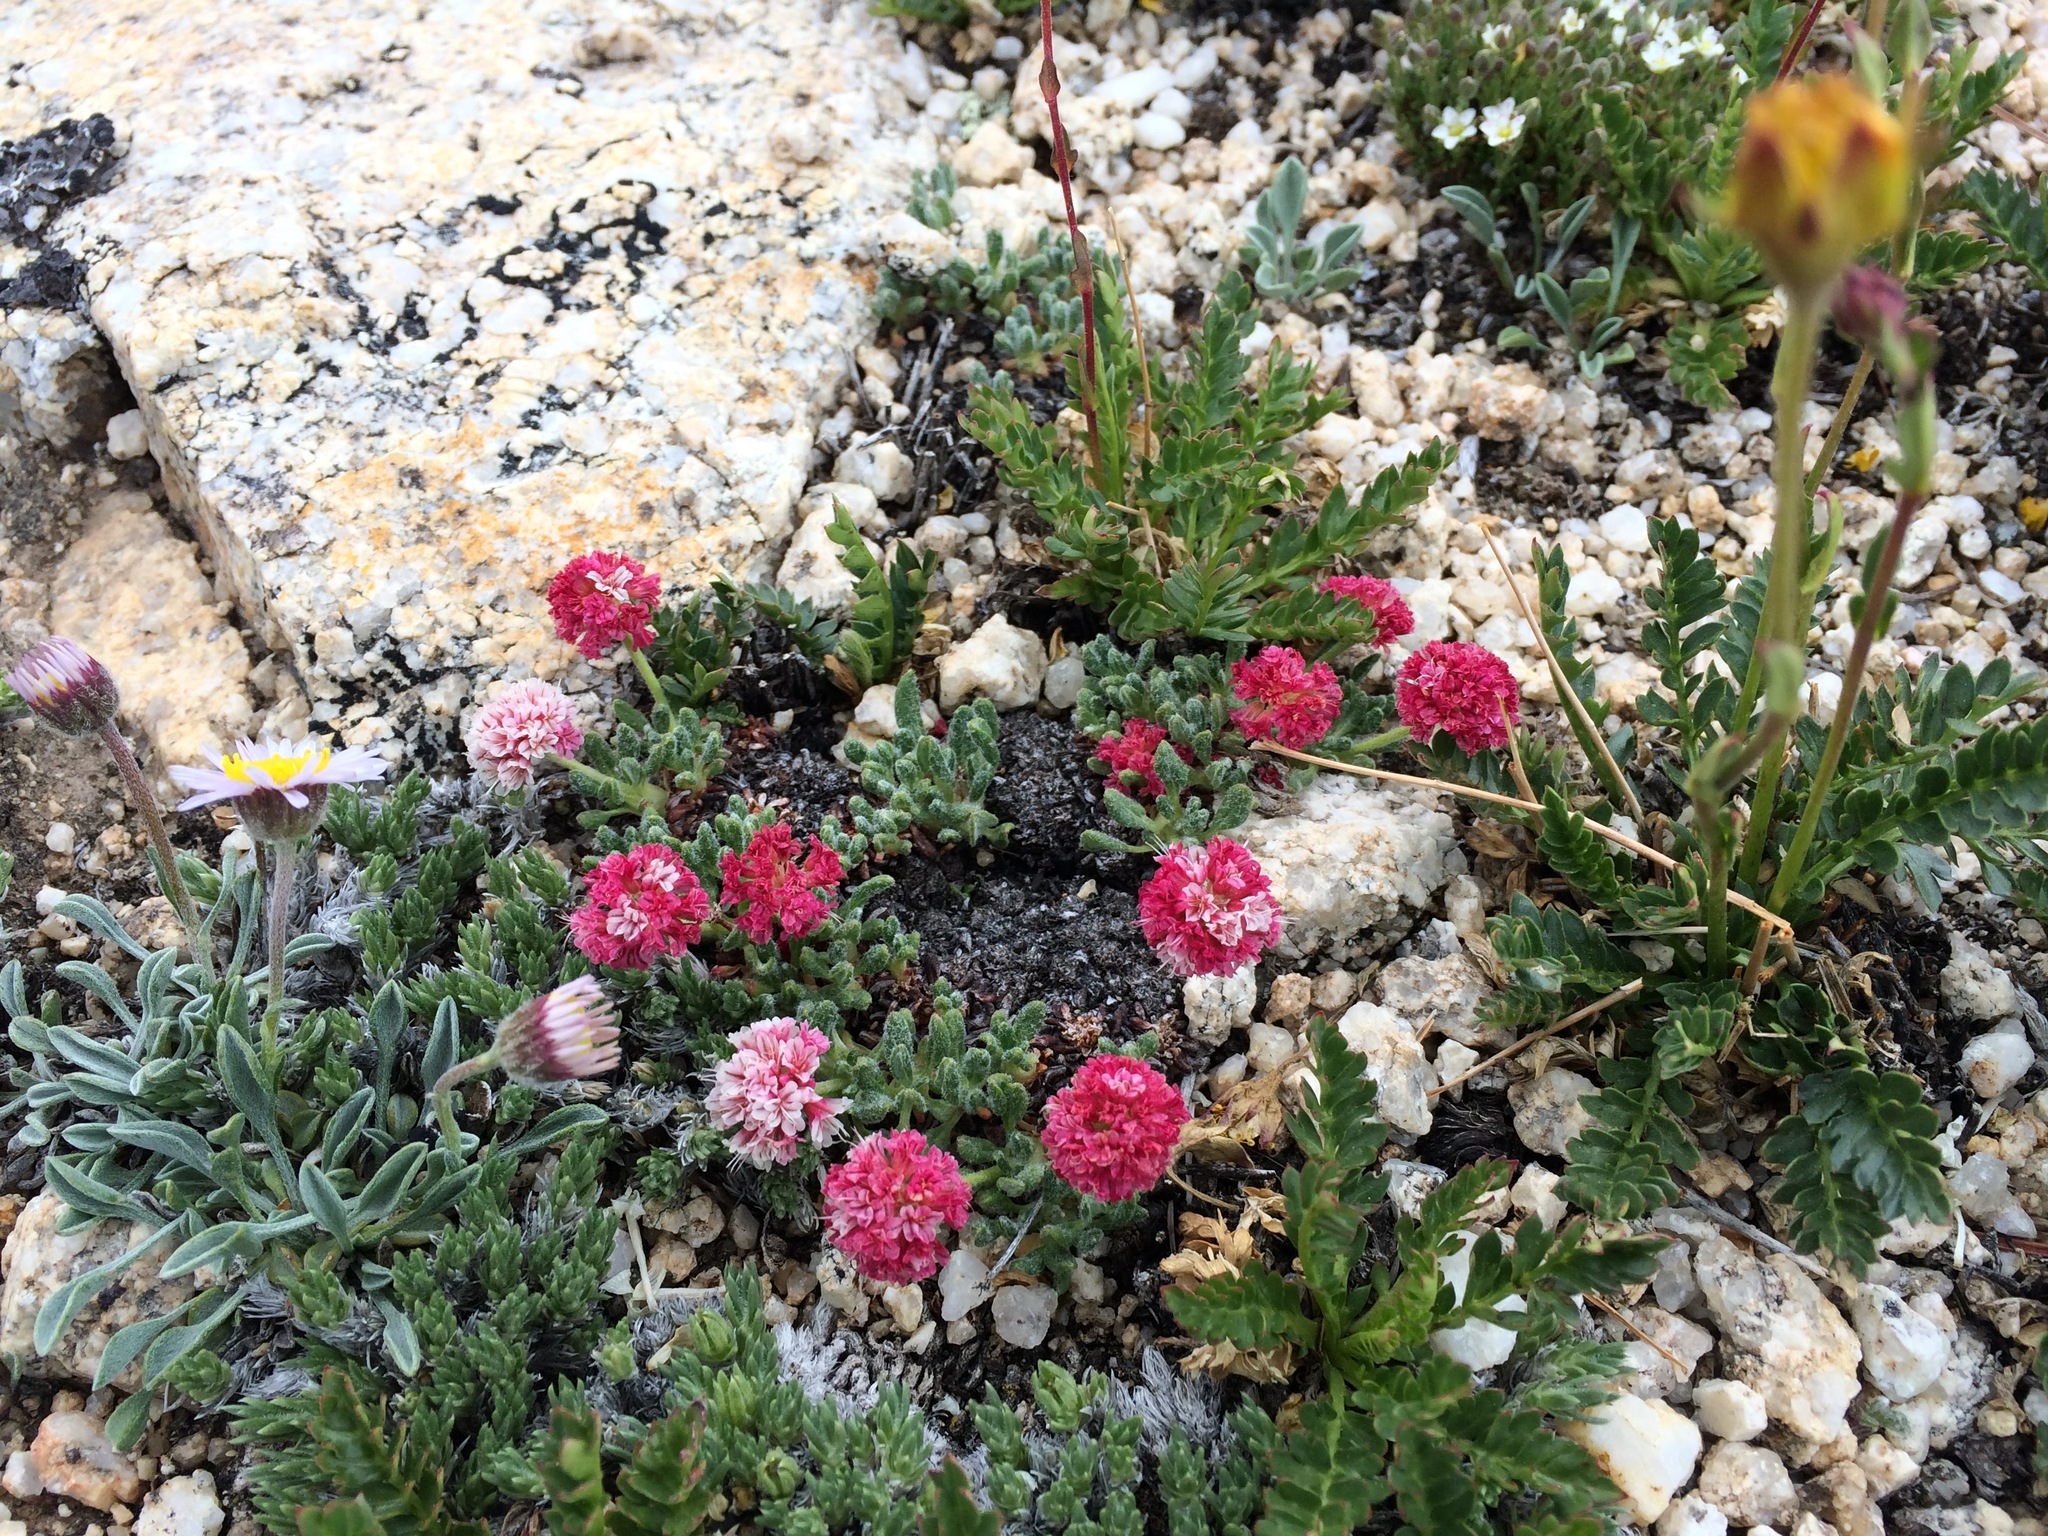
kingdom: Plantae
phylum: Tracheophyta
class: Magnoliopsida
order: Caryophyllales
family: Polygonaceae
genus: Eriogonum
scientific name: Eriogonum holmgrenii
